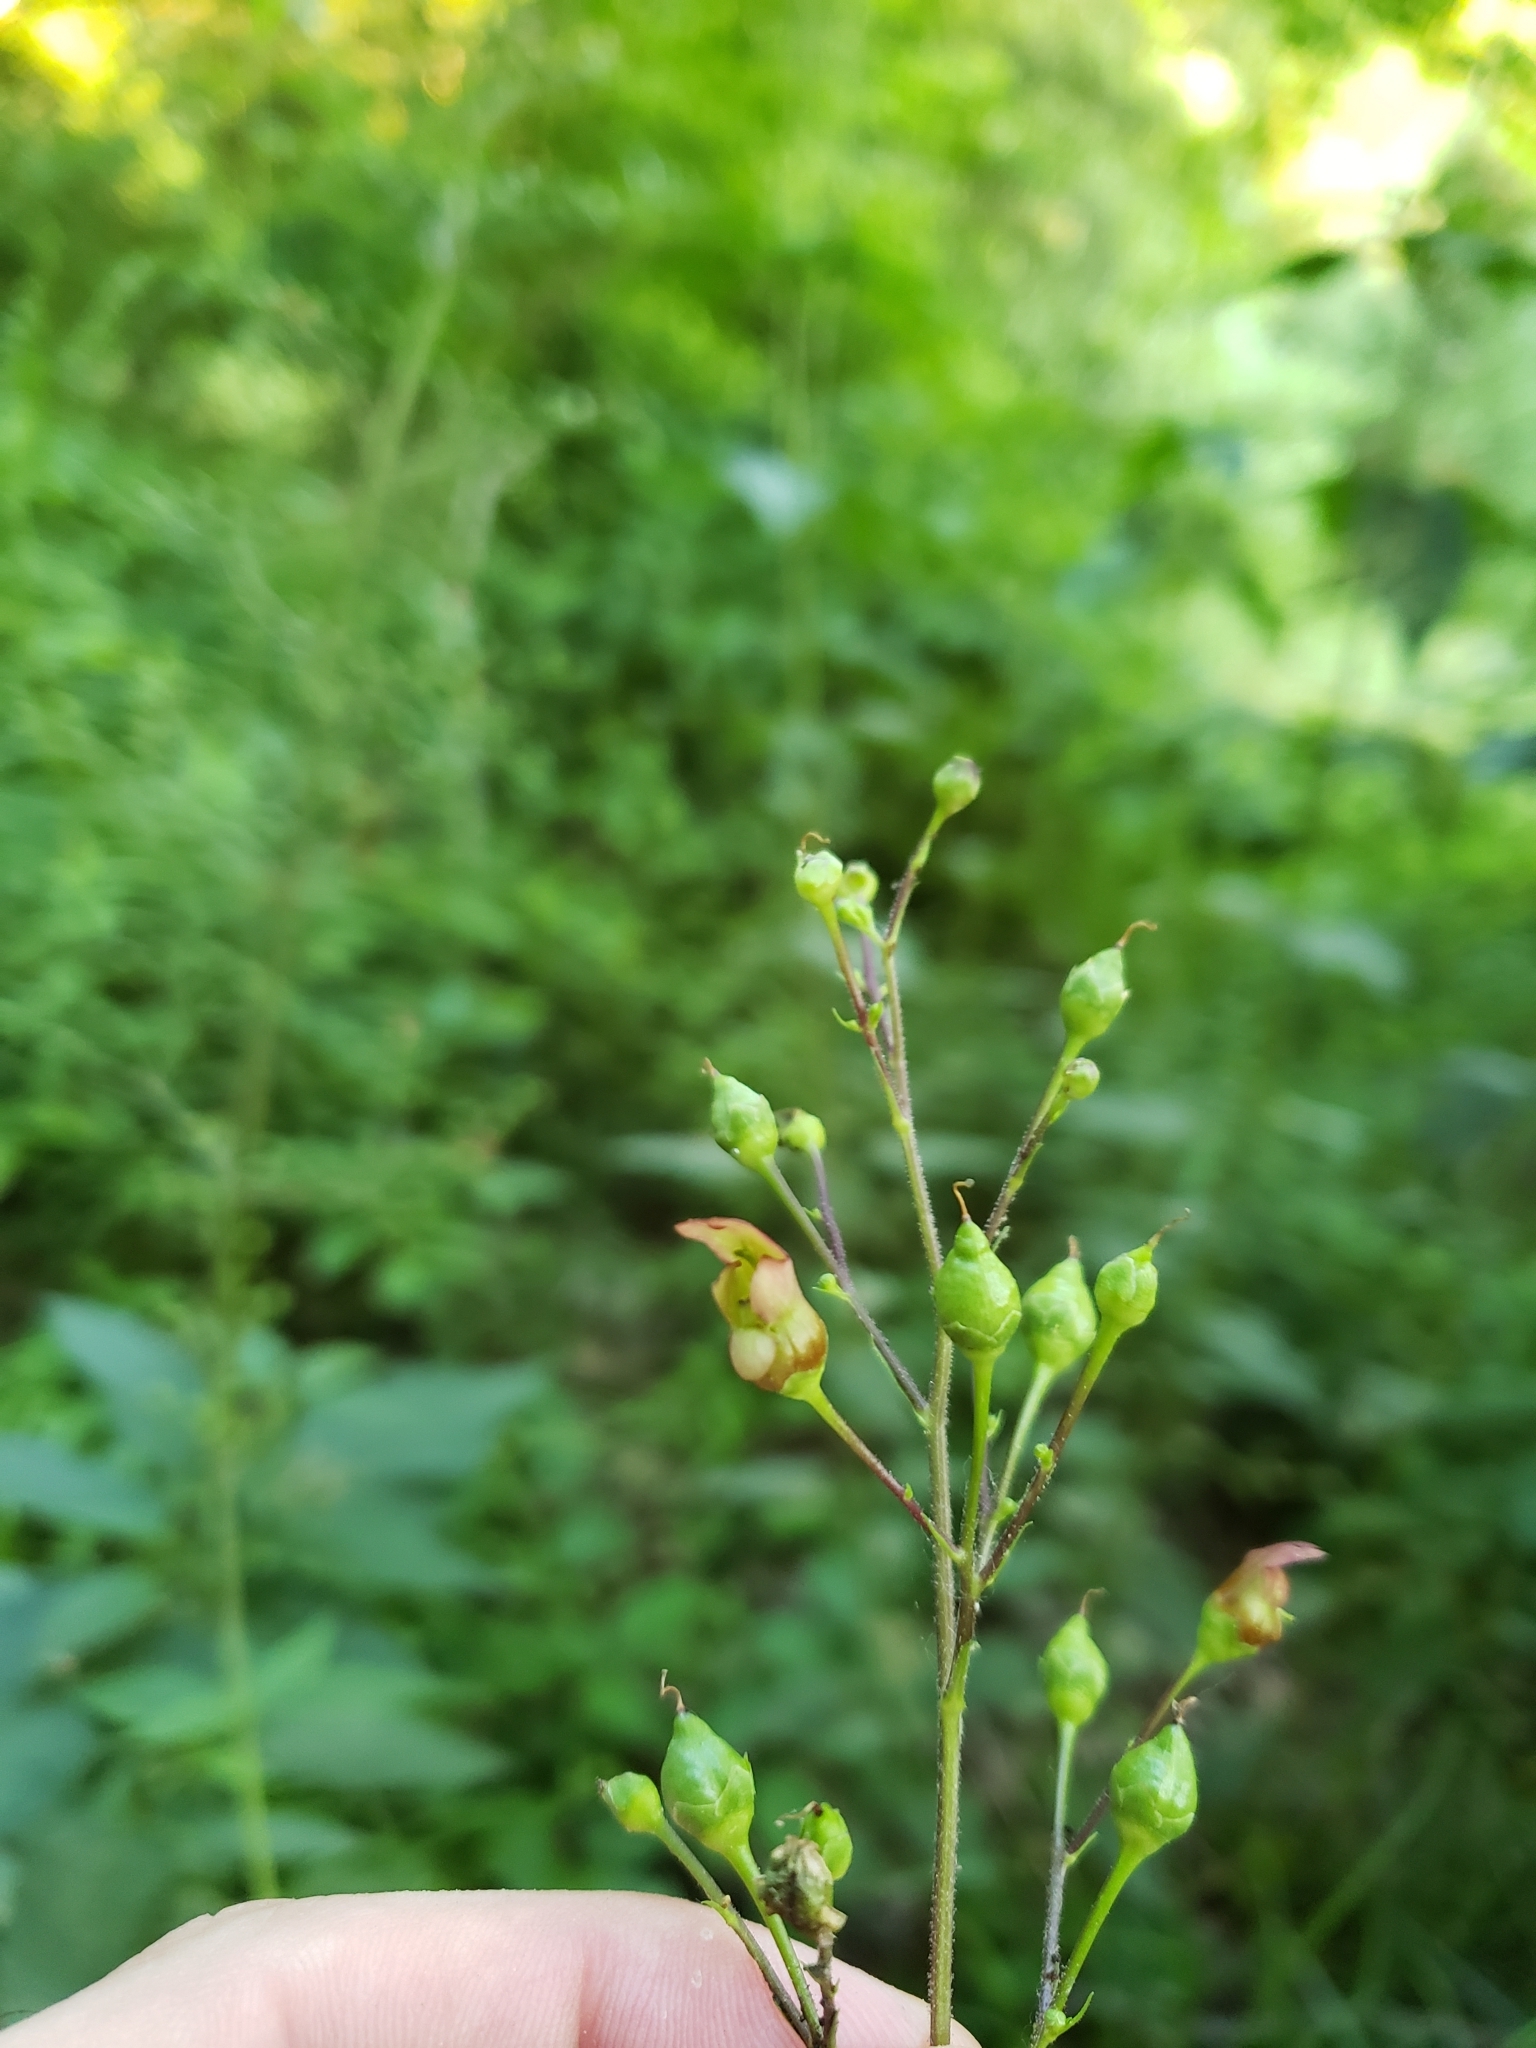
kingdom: Plantae
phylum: Tracheophyta
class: Magnoliopsida
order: Lamiales
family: Scrophulariaceae
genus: Scrophularia
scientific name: Scrophularia lanceolata
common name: American figwort
